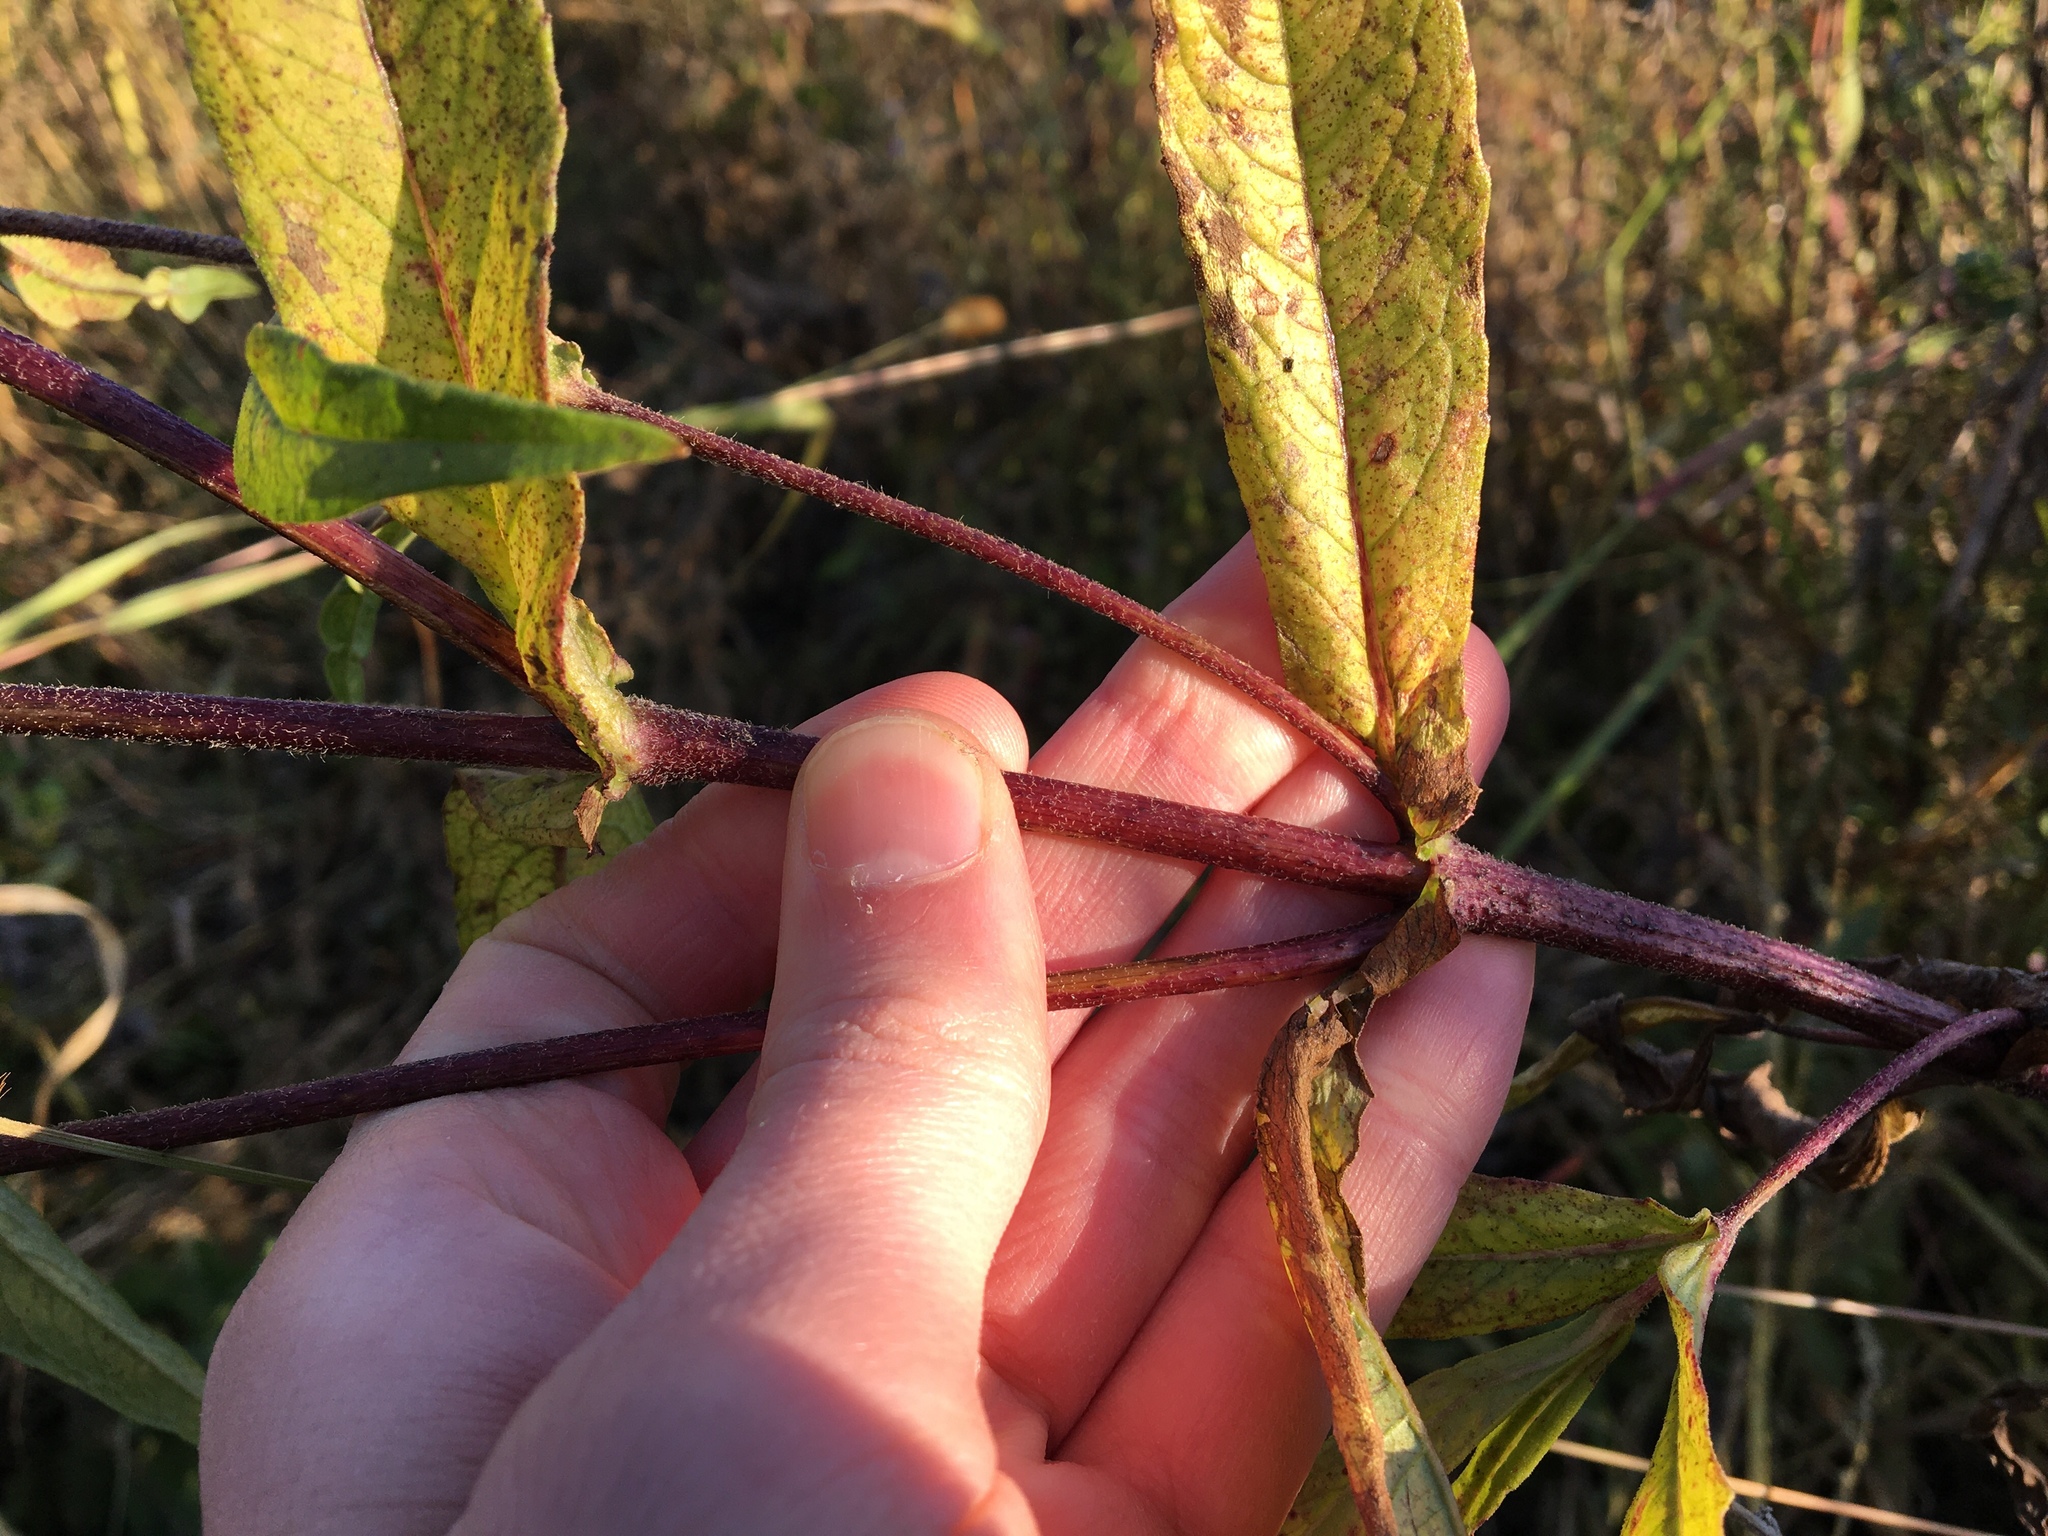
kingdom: Plantae
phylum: Tracheophyta
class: Magnoliopsida
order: Asterales
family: Asteraceae
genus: Bidens
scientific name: Bidens cernua
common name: Nodding bur-marigold
